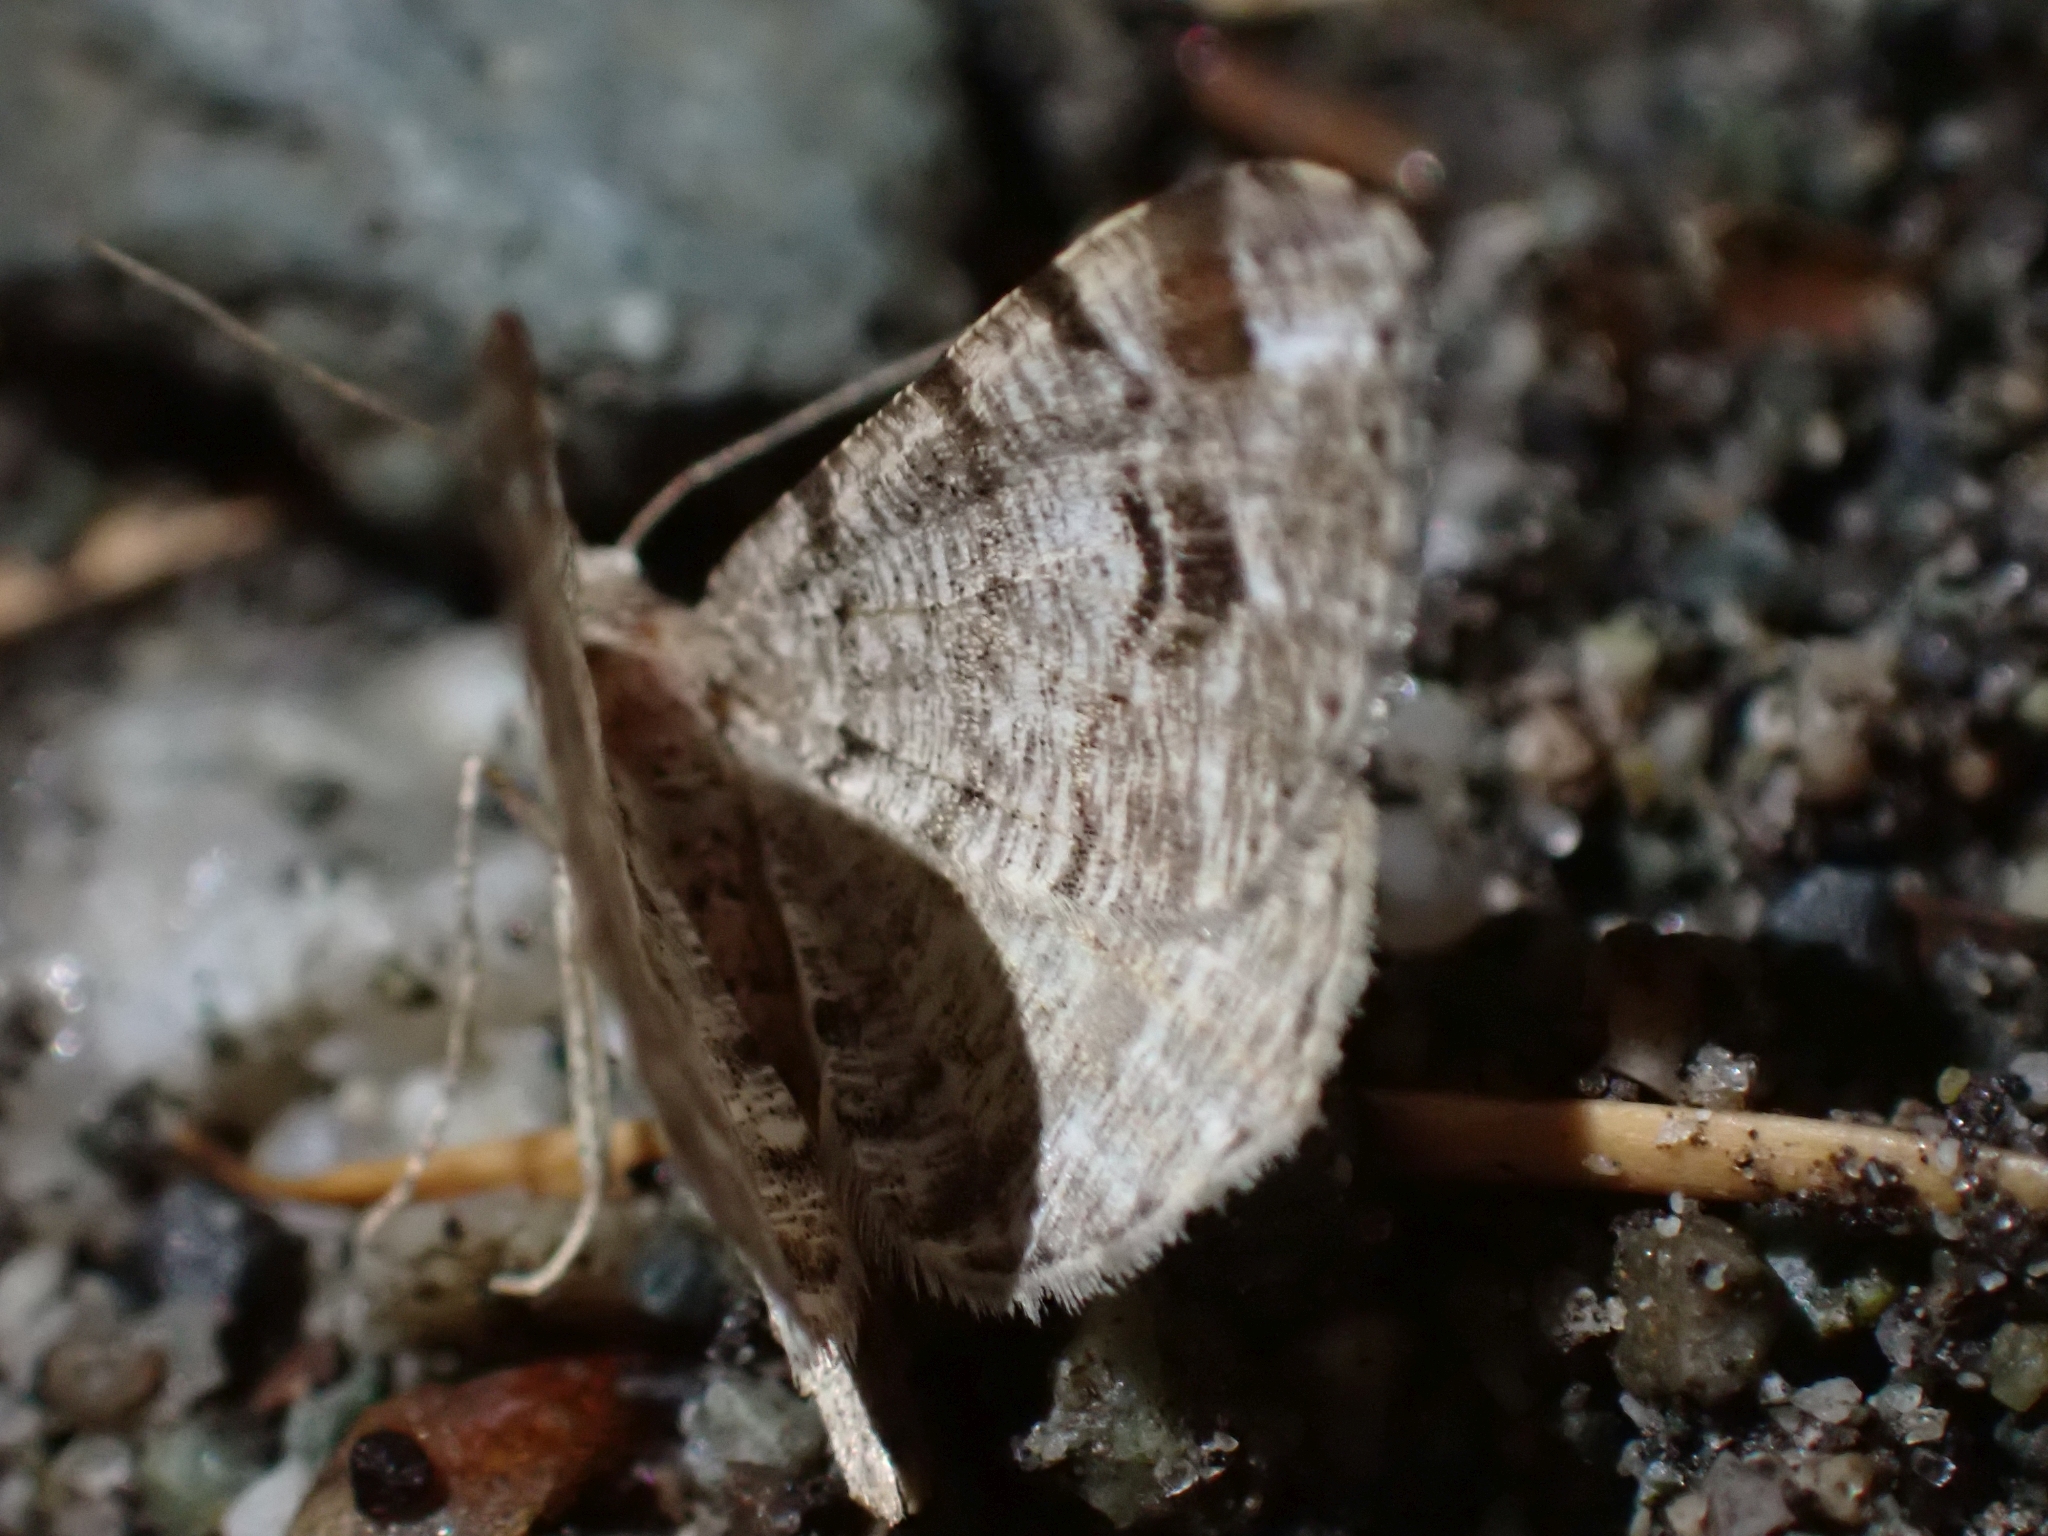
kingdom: Animalia
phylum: Arthropoda
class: Insecta
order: Lepidoptera
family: Geometridae
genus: Macaria
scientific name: Macaria signaria
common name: Dusky peacock
